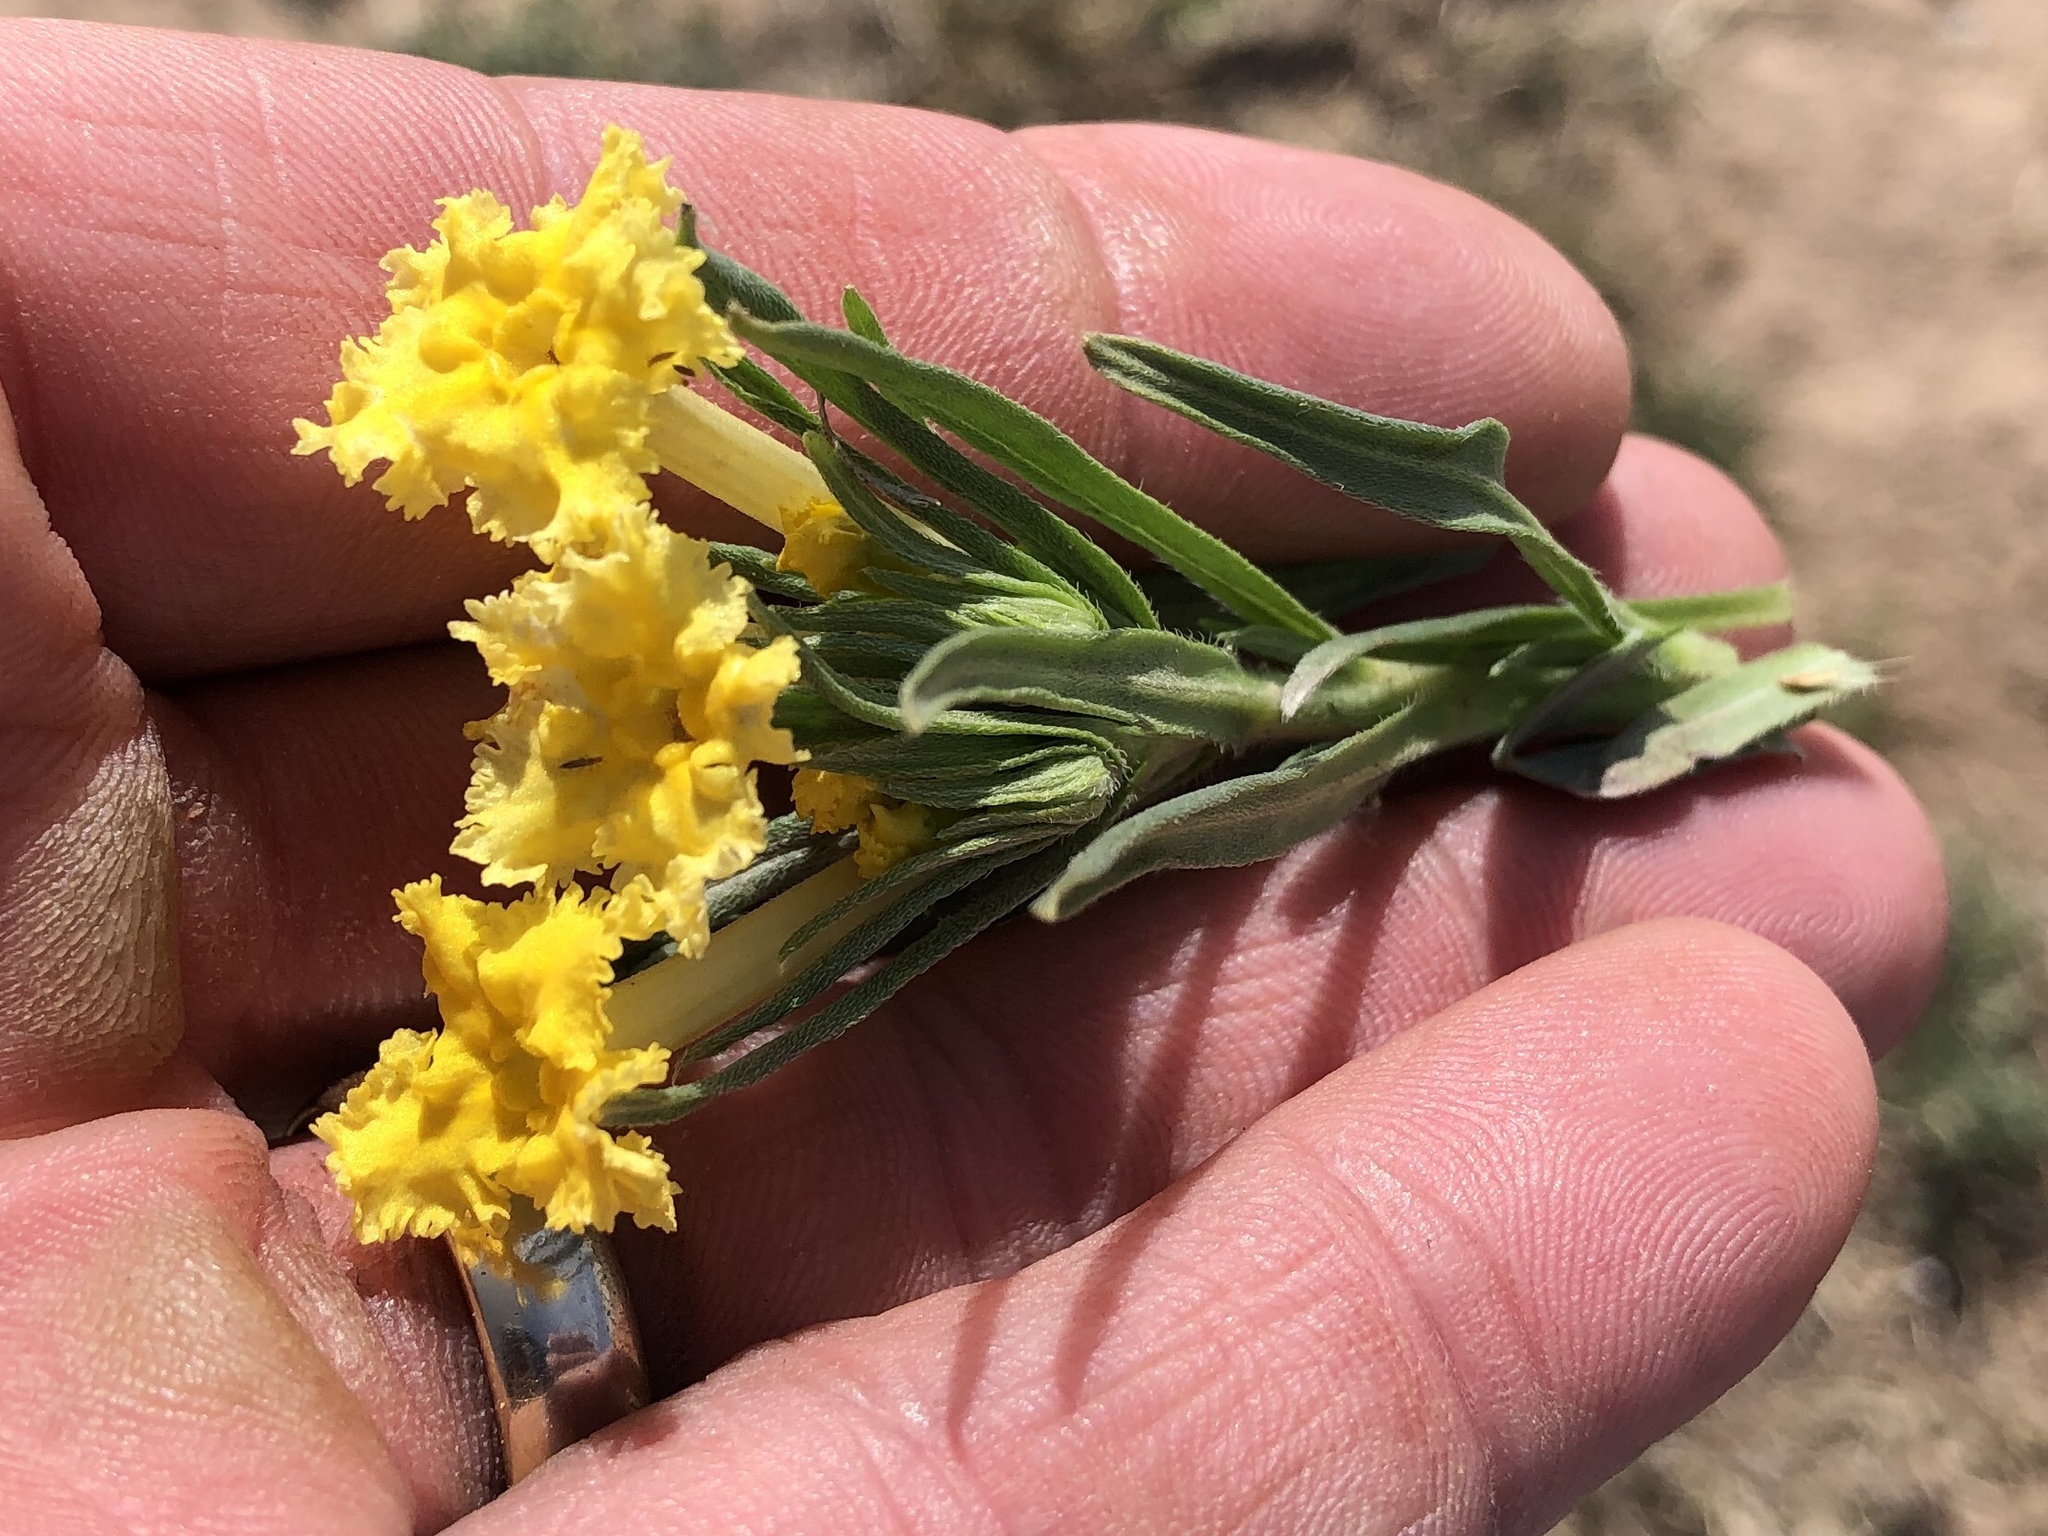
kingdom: Plantae
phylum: Tracheophyta
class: Magnoliopsida
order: Boraginales
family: Boraginaceae
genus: Lithospermum
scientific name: Lithospermum incisum
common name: Fringed gromwell
